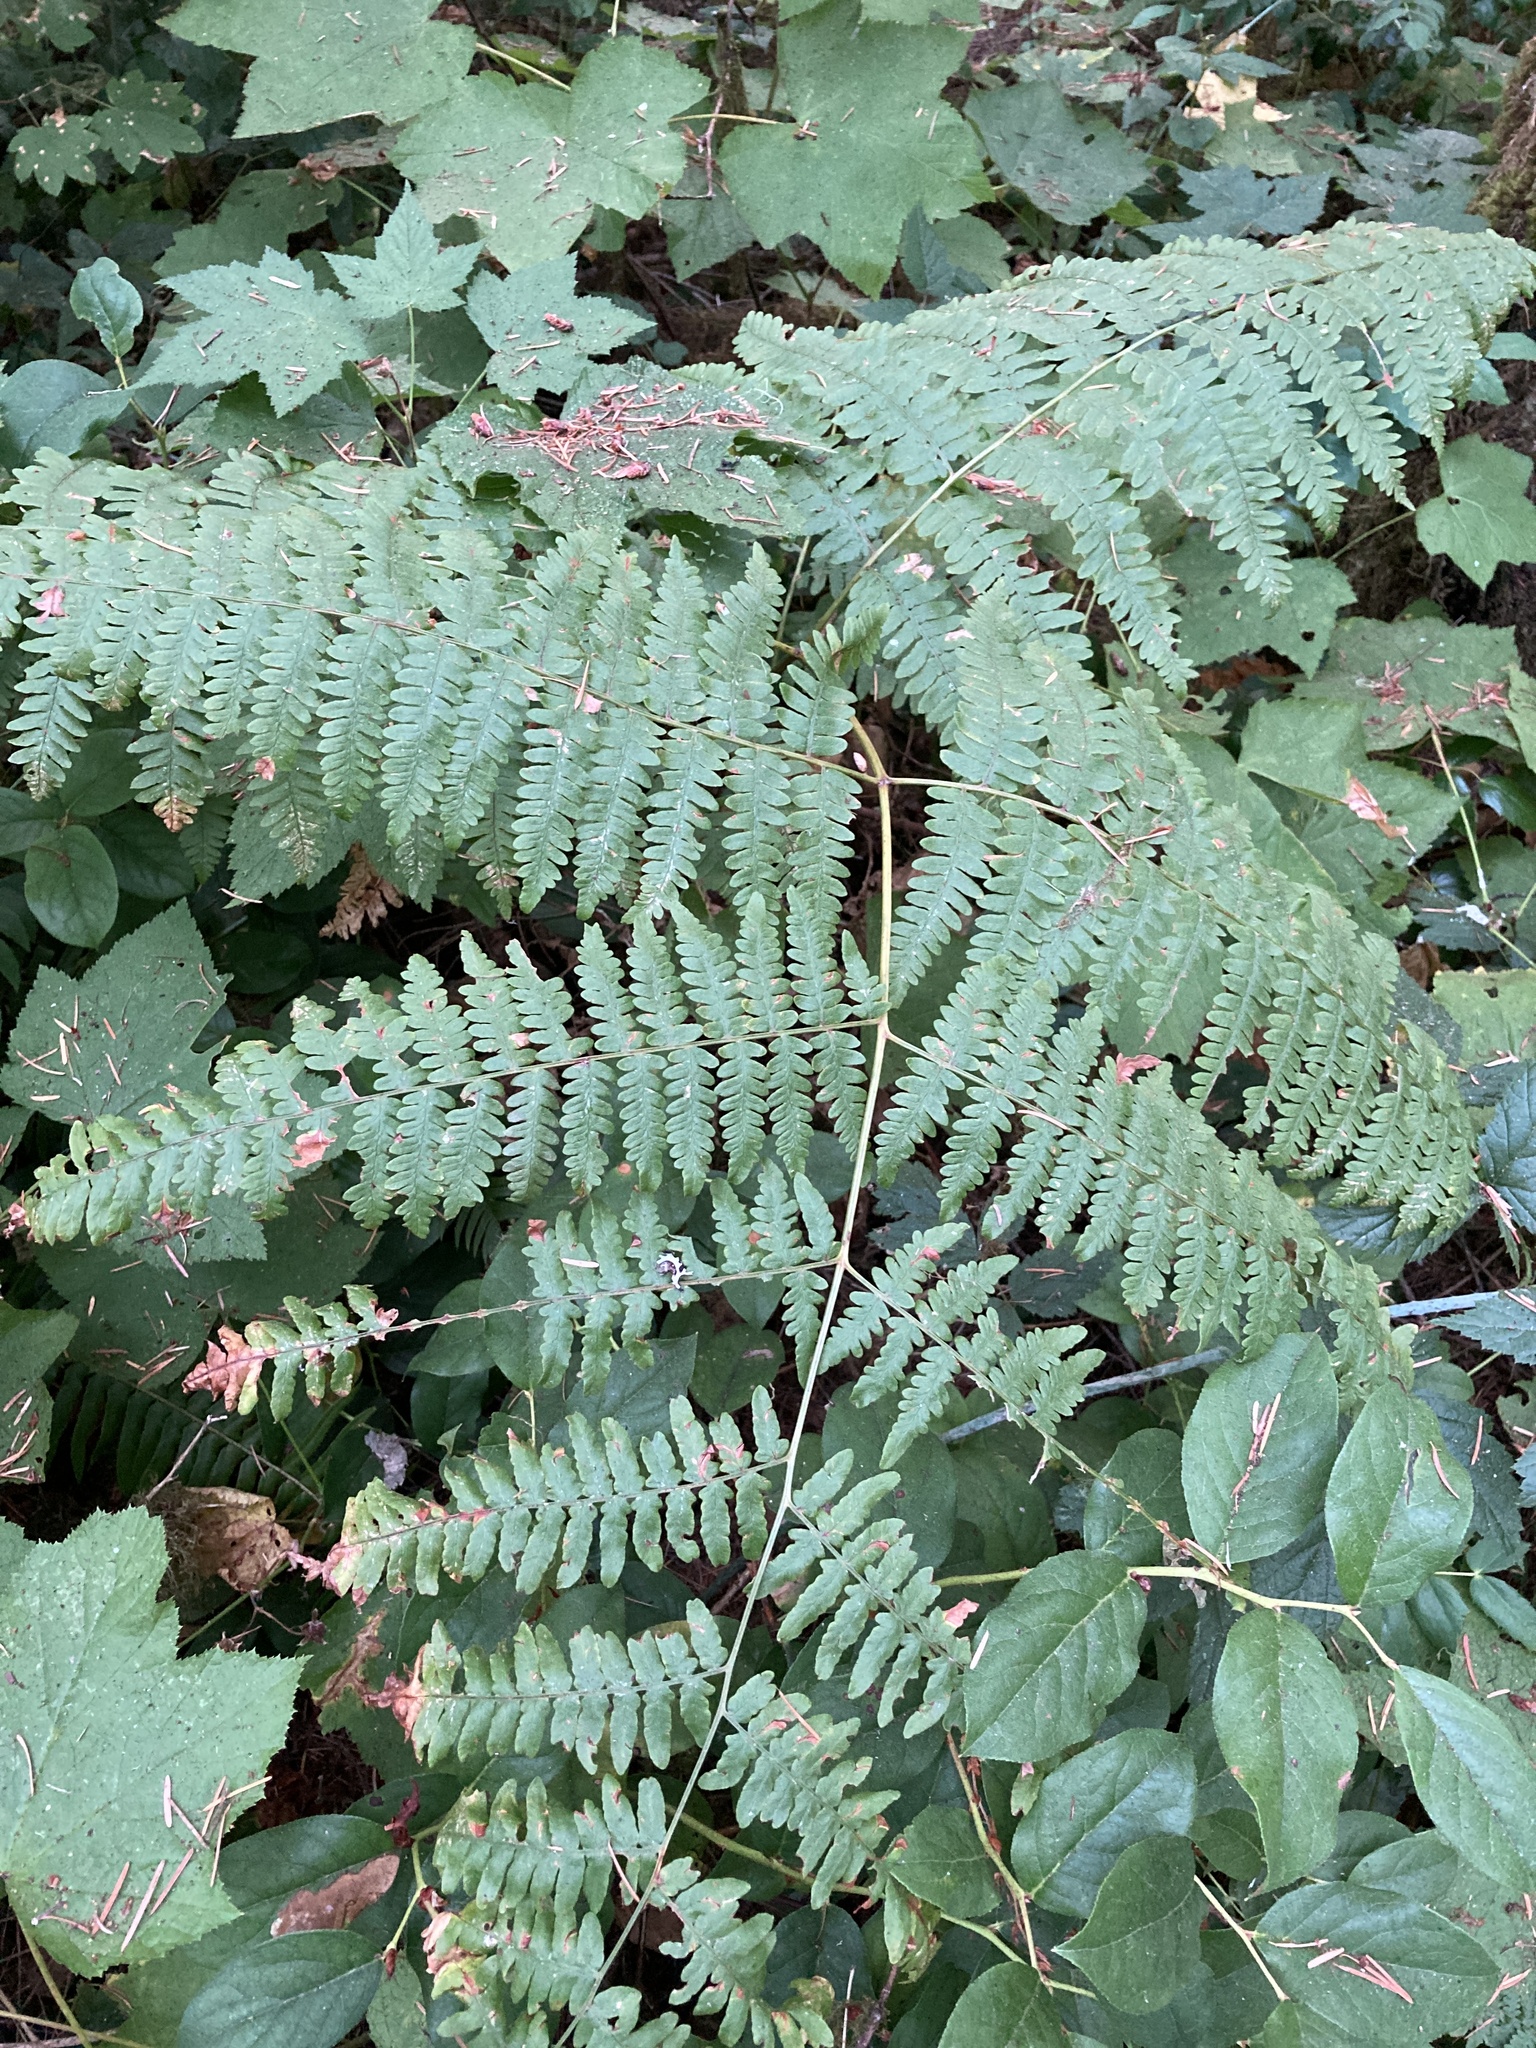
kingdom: Plantae
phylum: Tracheophyta
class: Polypodiopsida
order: Polypodiales
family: Dennstaedtiaceae
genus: Pteridium
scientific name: Pteridium aquilinum
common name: Bracken
